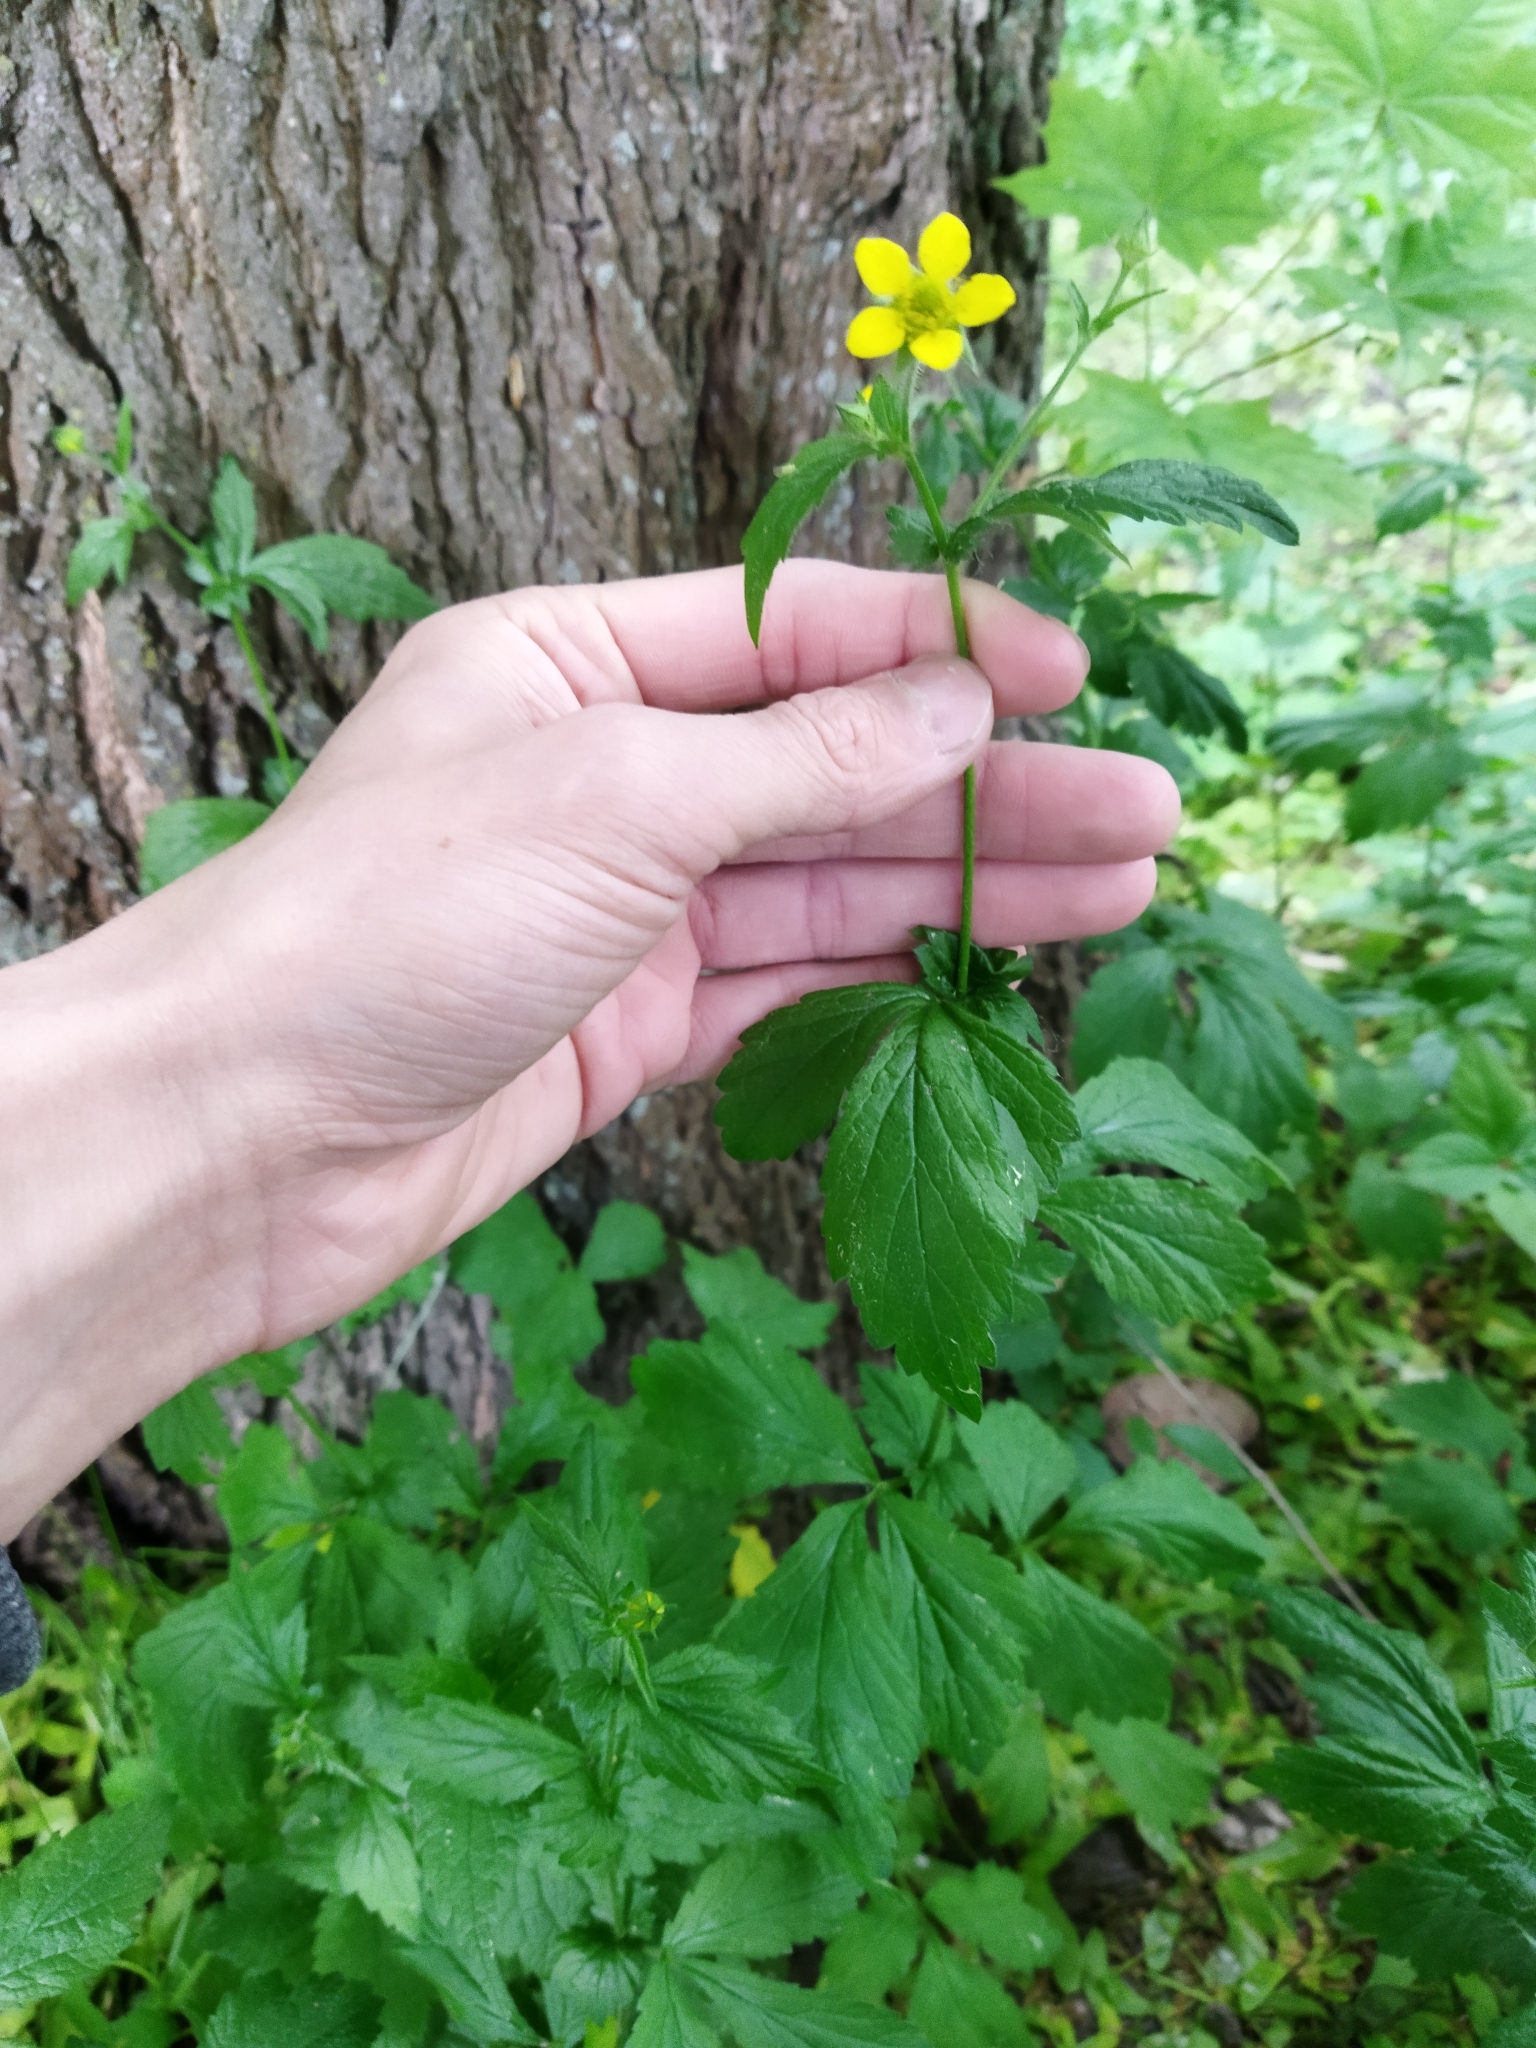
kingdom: Plantae
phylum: Tracheophyta
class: Magnoliopsida
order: Rosales
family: Rosaceae
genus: Geum
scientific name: Geum urbanum
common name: Wood avens
